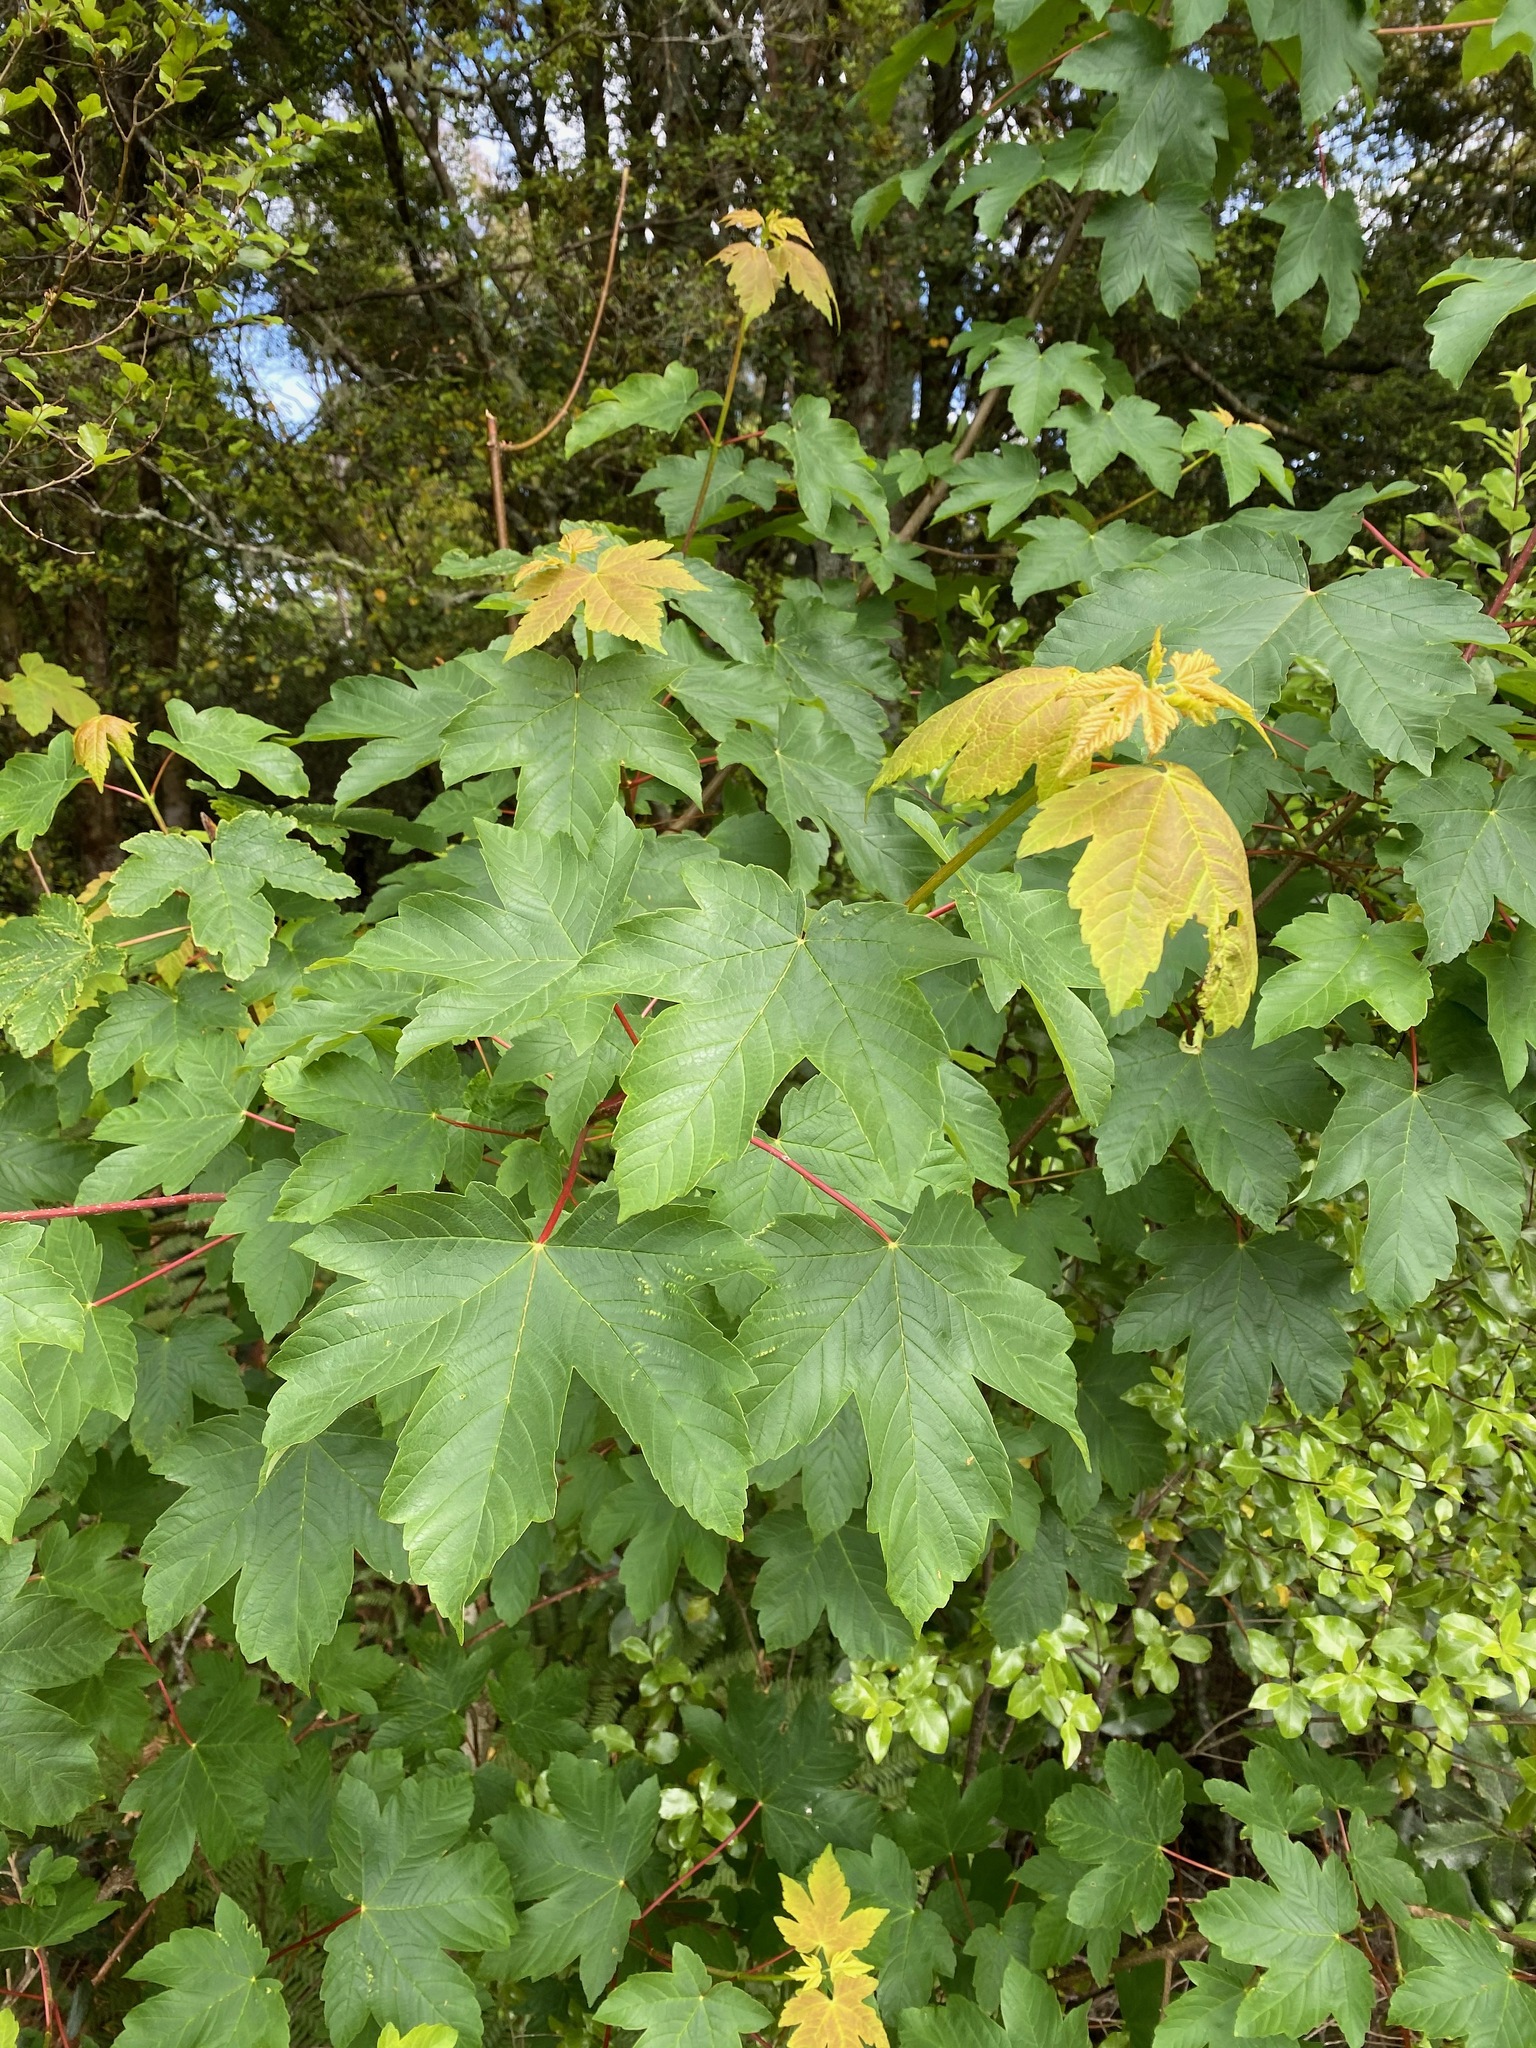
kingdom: Plantae
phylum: Tracheophyta
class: Magnoliopsida
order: Sapindales
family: Sapindaceae
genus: Acer
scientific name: Acer pseudoplatanus
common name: Sycamore
